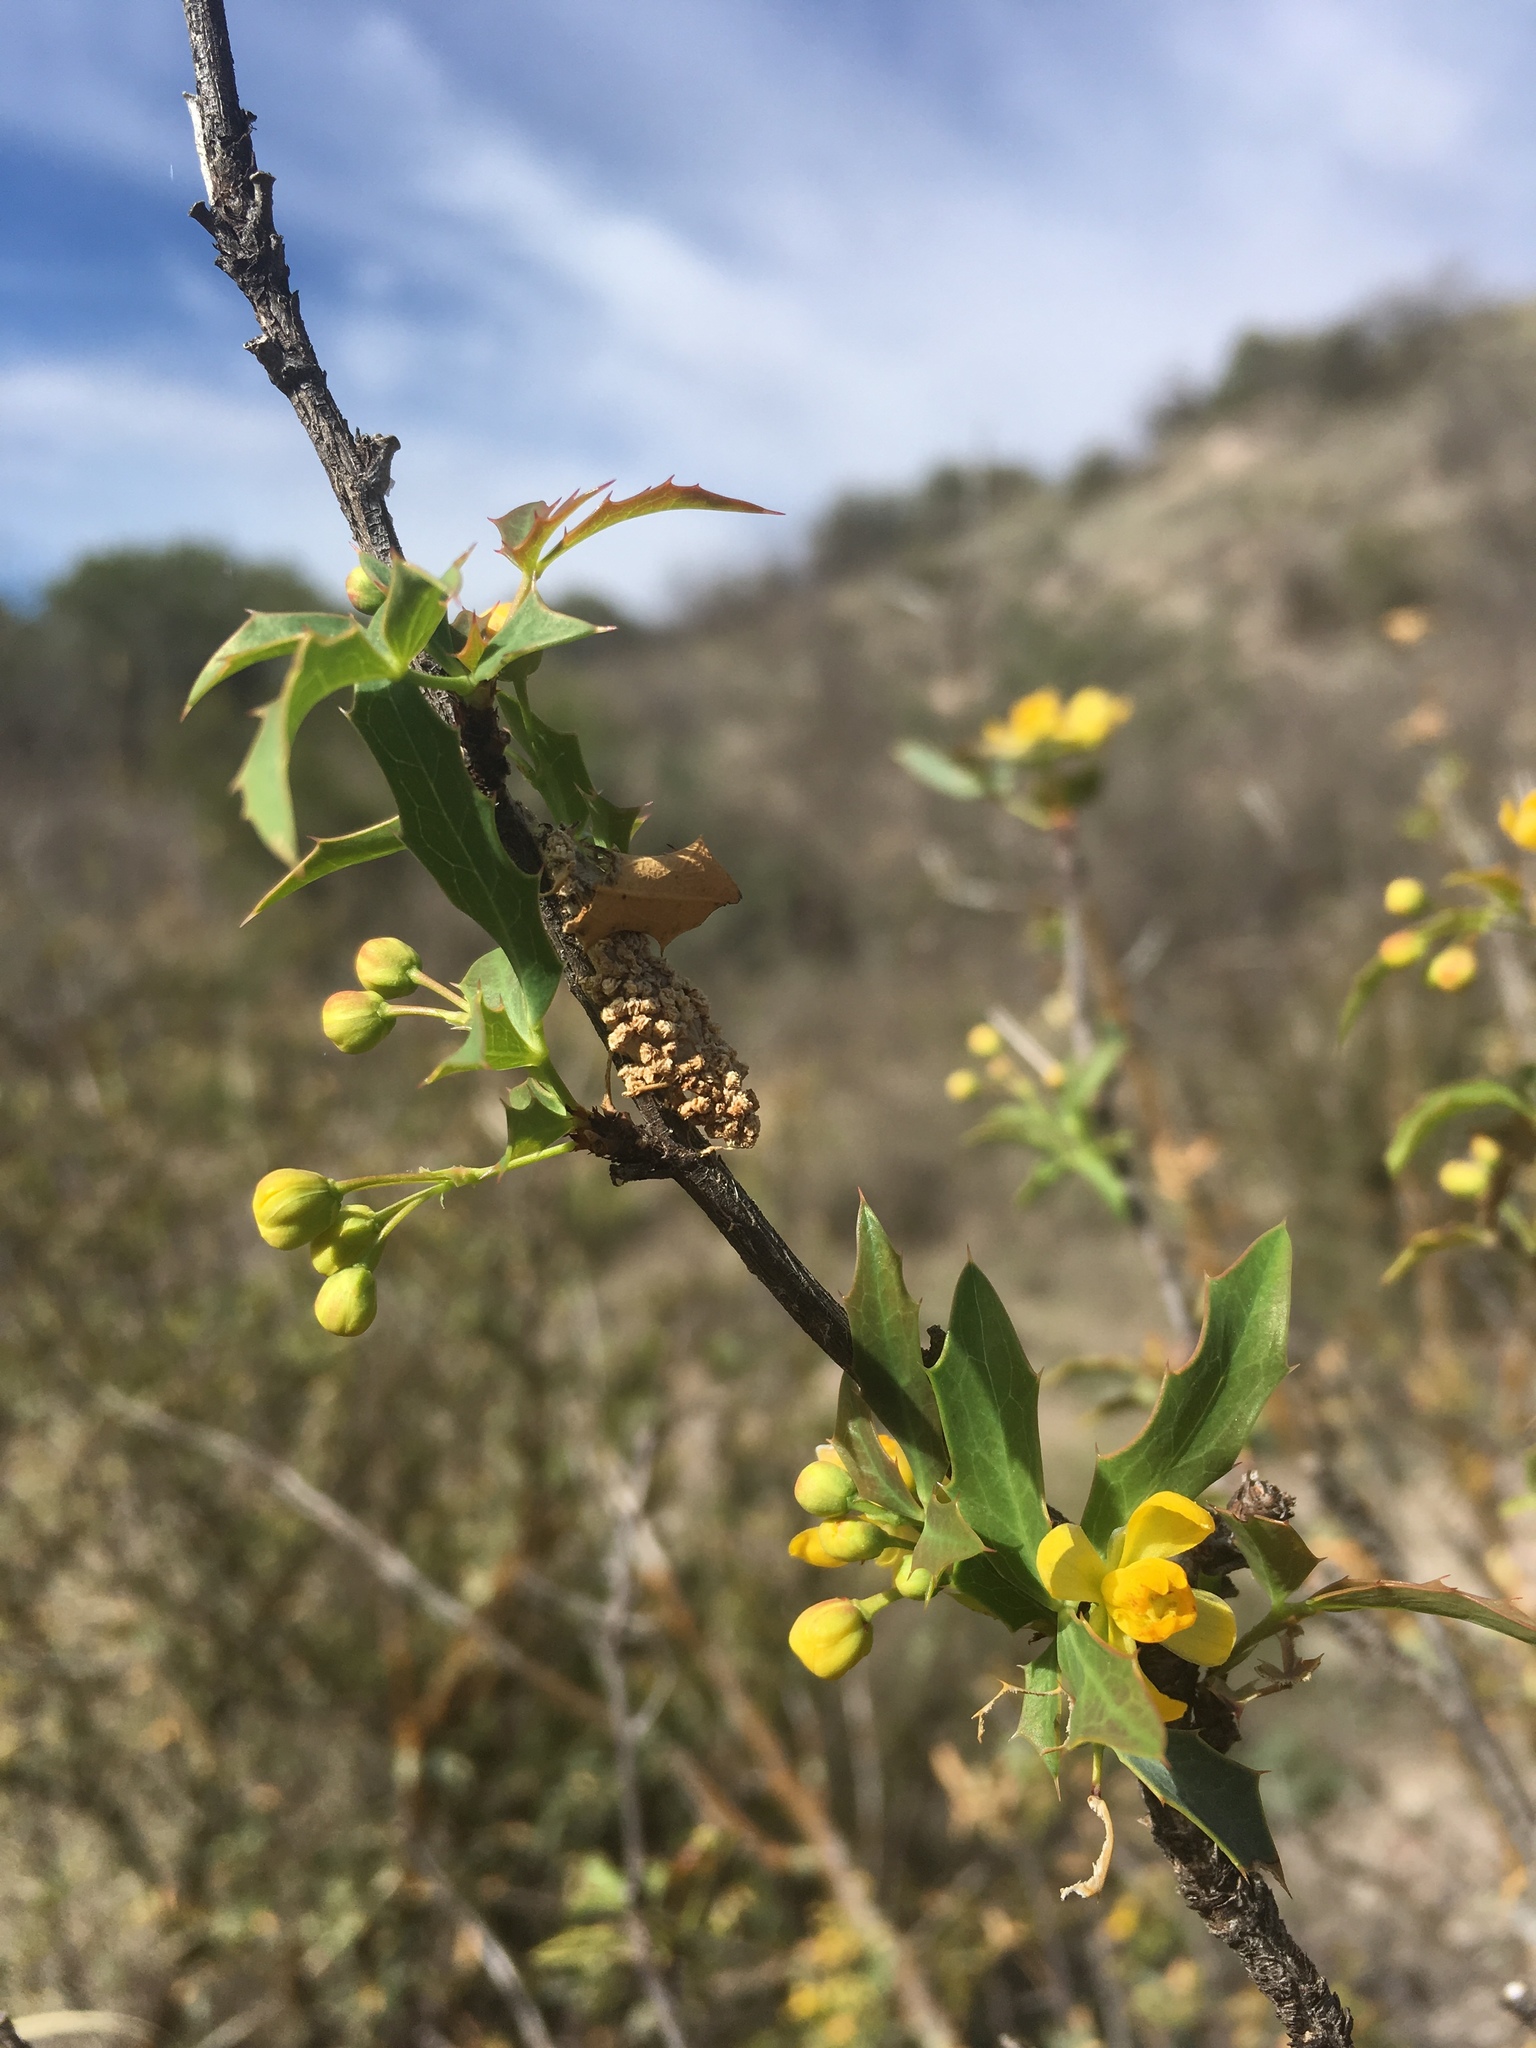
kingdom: Plantae
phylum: Tracheophyta
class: Magnoliopsida
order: Ranunculales
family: Berberidaceae
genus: Alloberberis
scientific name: Alloberberis haematocarpa
